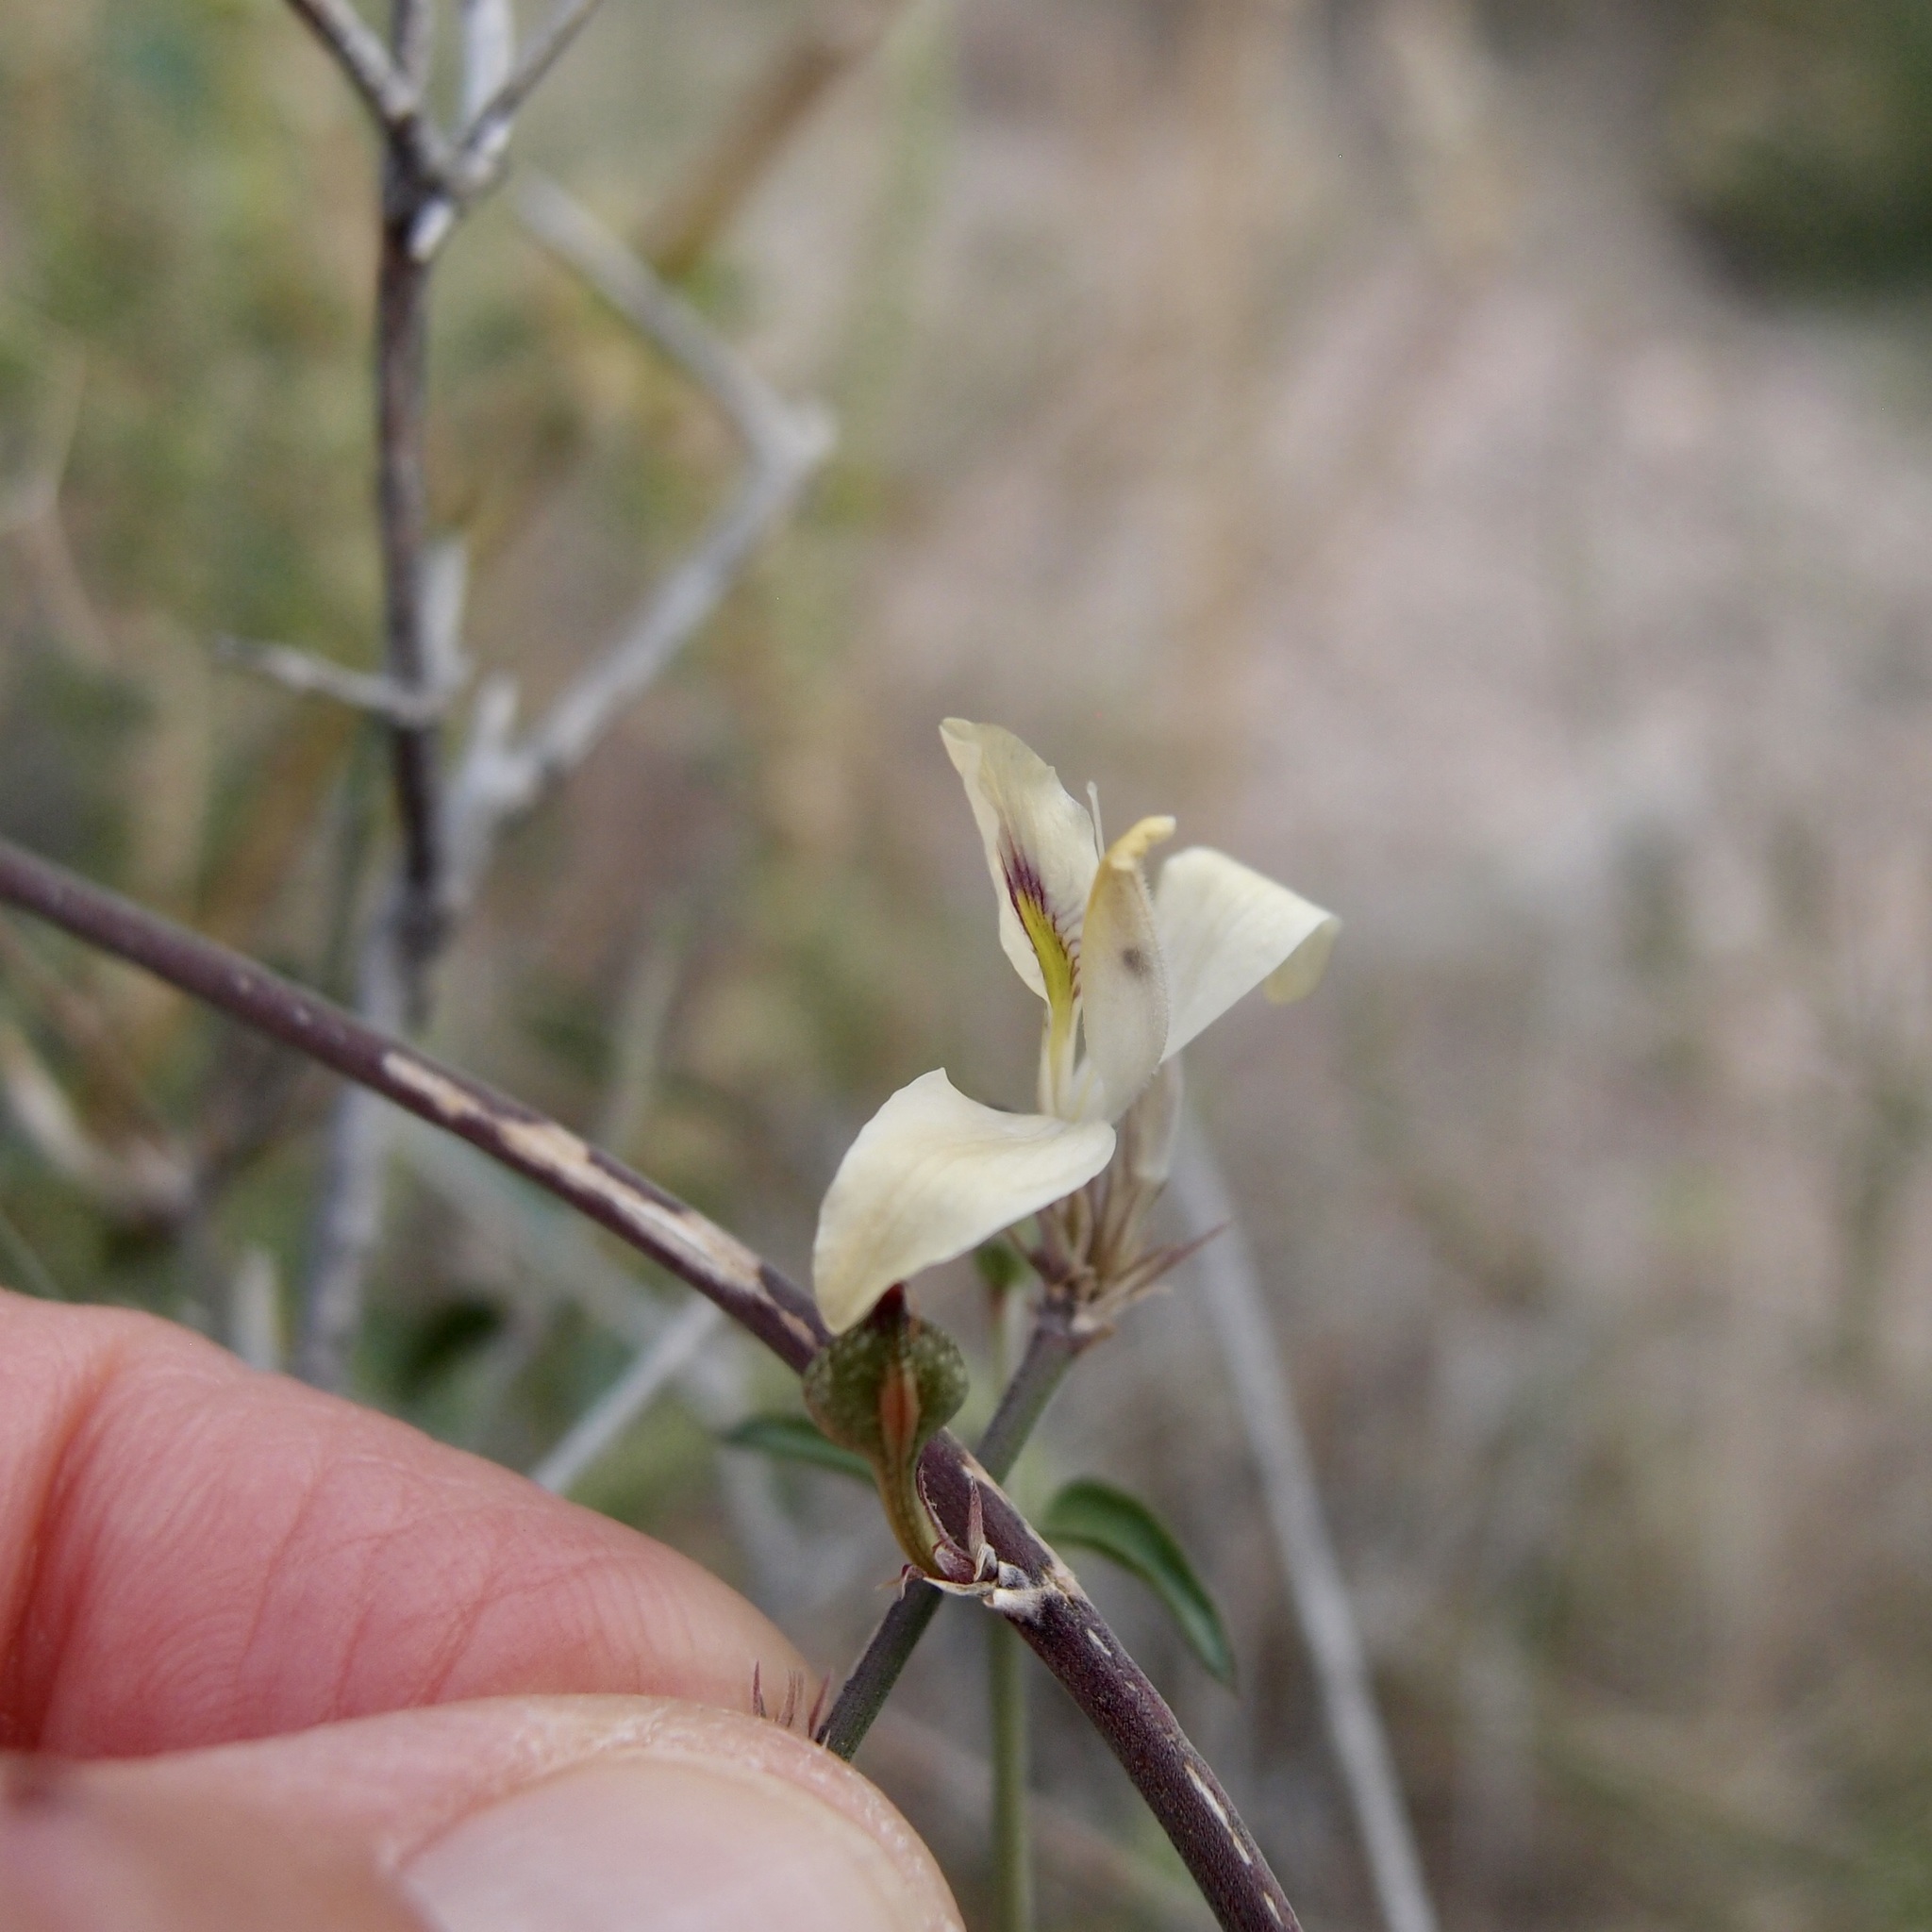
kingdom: Plantae
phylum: Tracheophyta
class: Magnoliopsida
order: Lamiales
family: Acanthaceae
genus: Carlowrightia
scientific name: Carlowrightia arizonica
